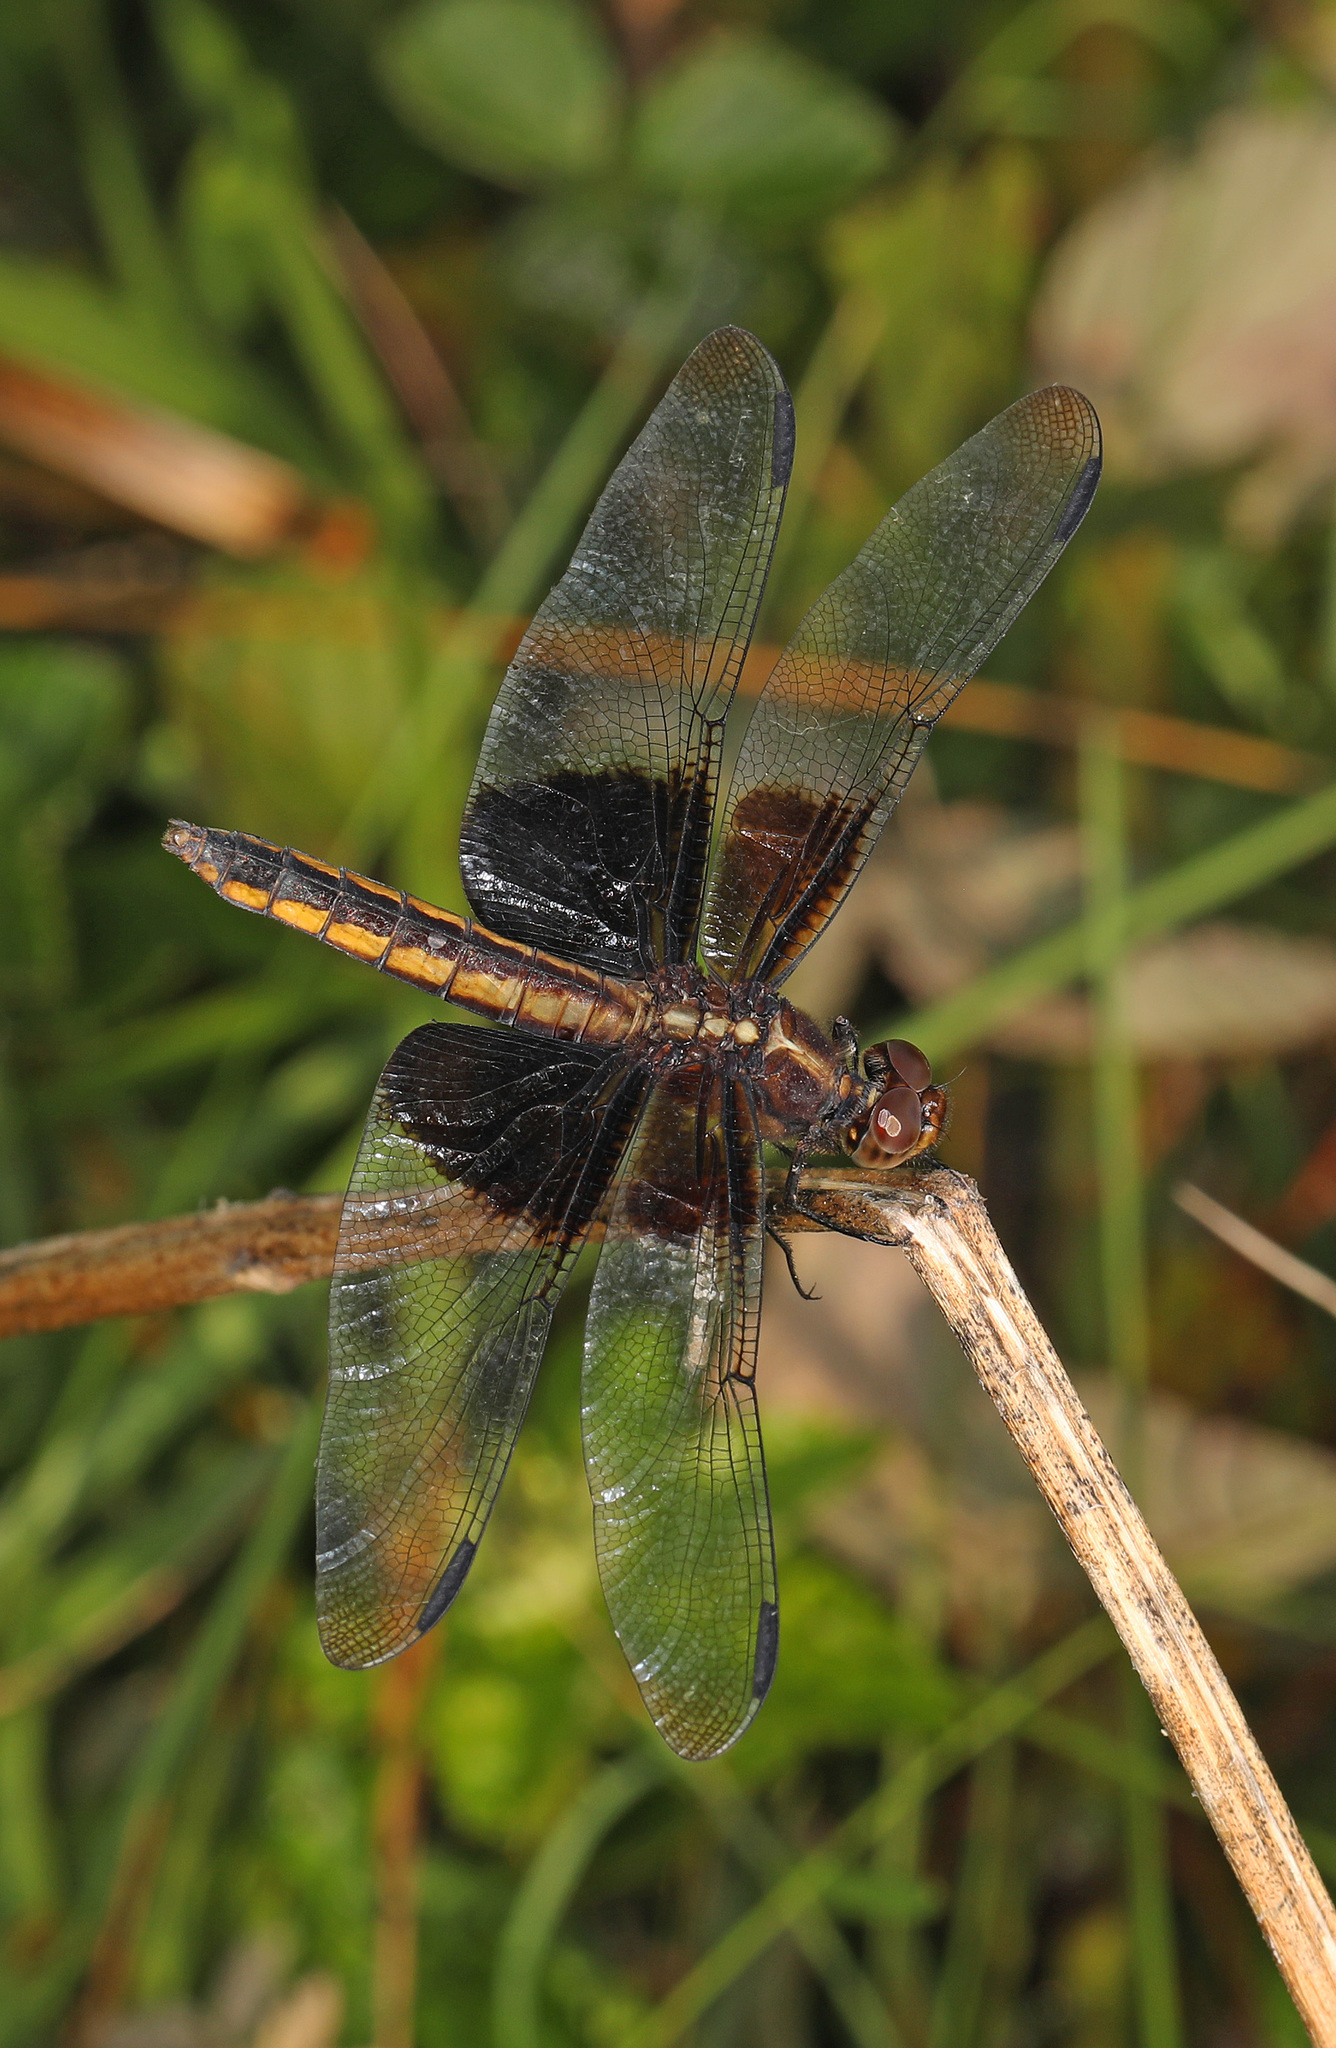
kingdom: Animalia
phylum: Arthropoda
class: Insecta
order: Odonata
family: Libellulidae
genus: Libellula
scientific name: Libellula luctuosa
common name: Widow skimmer
